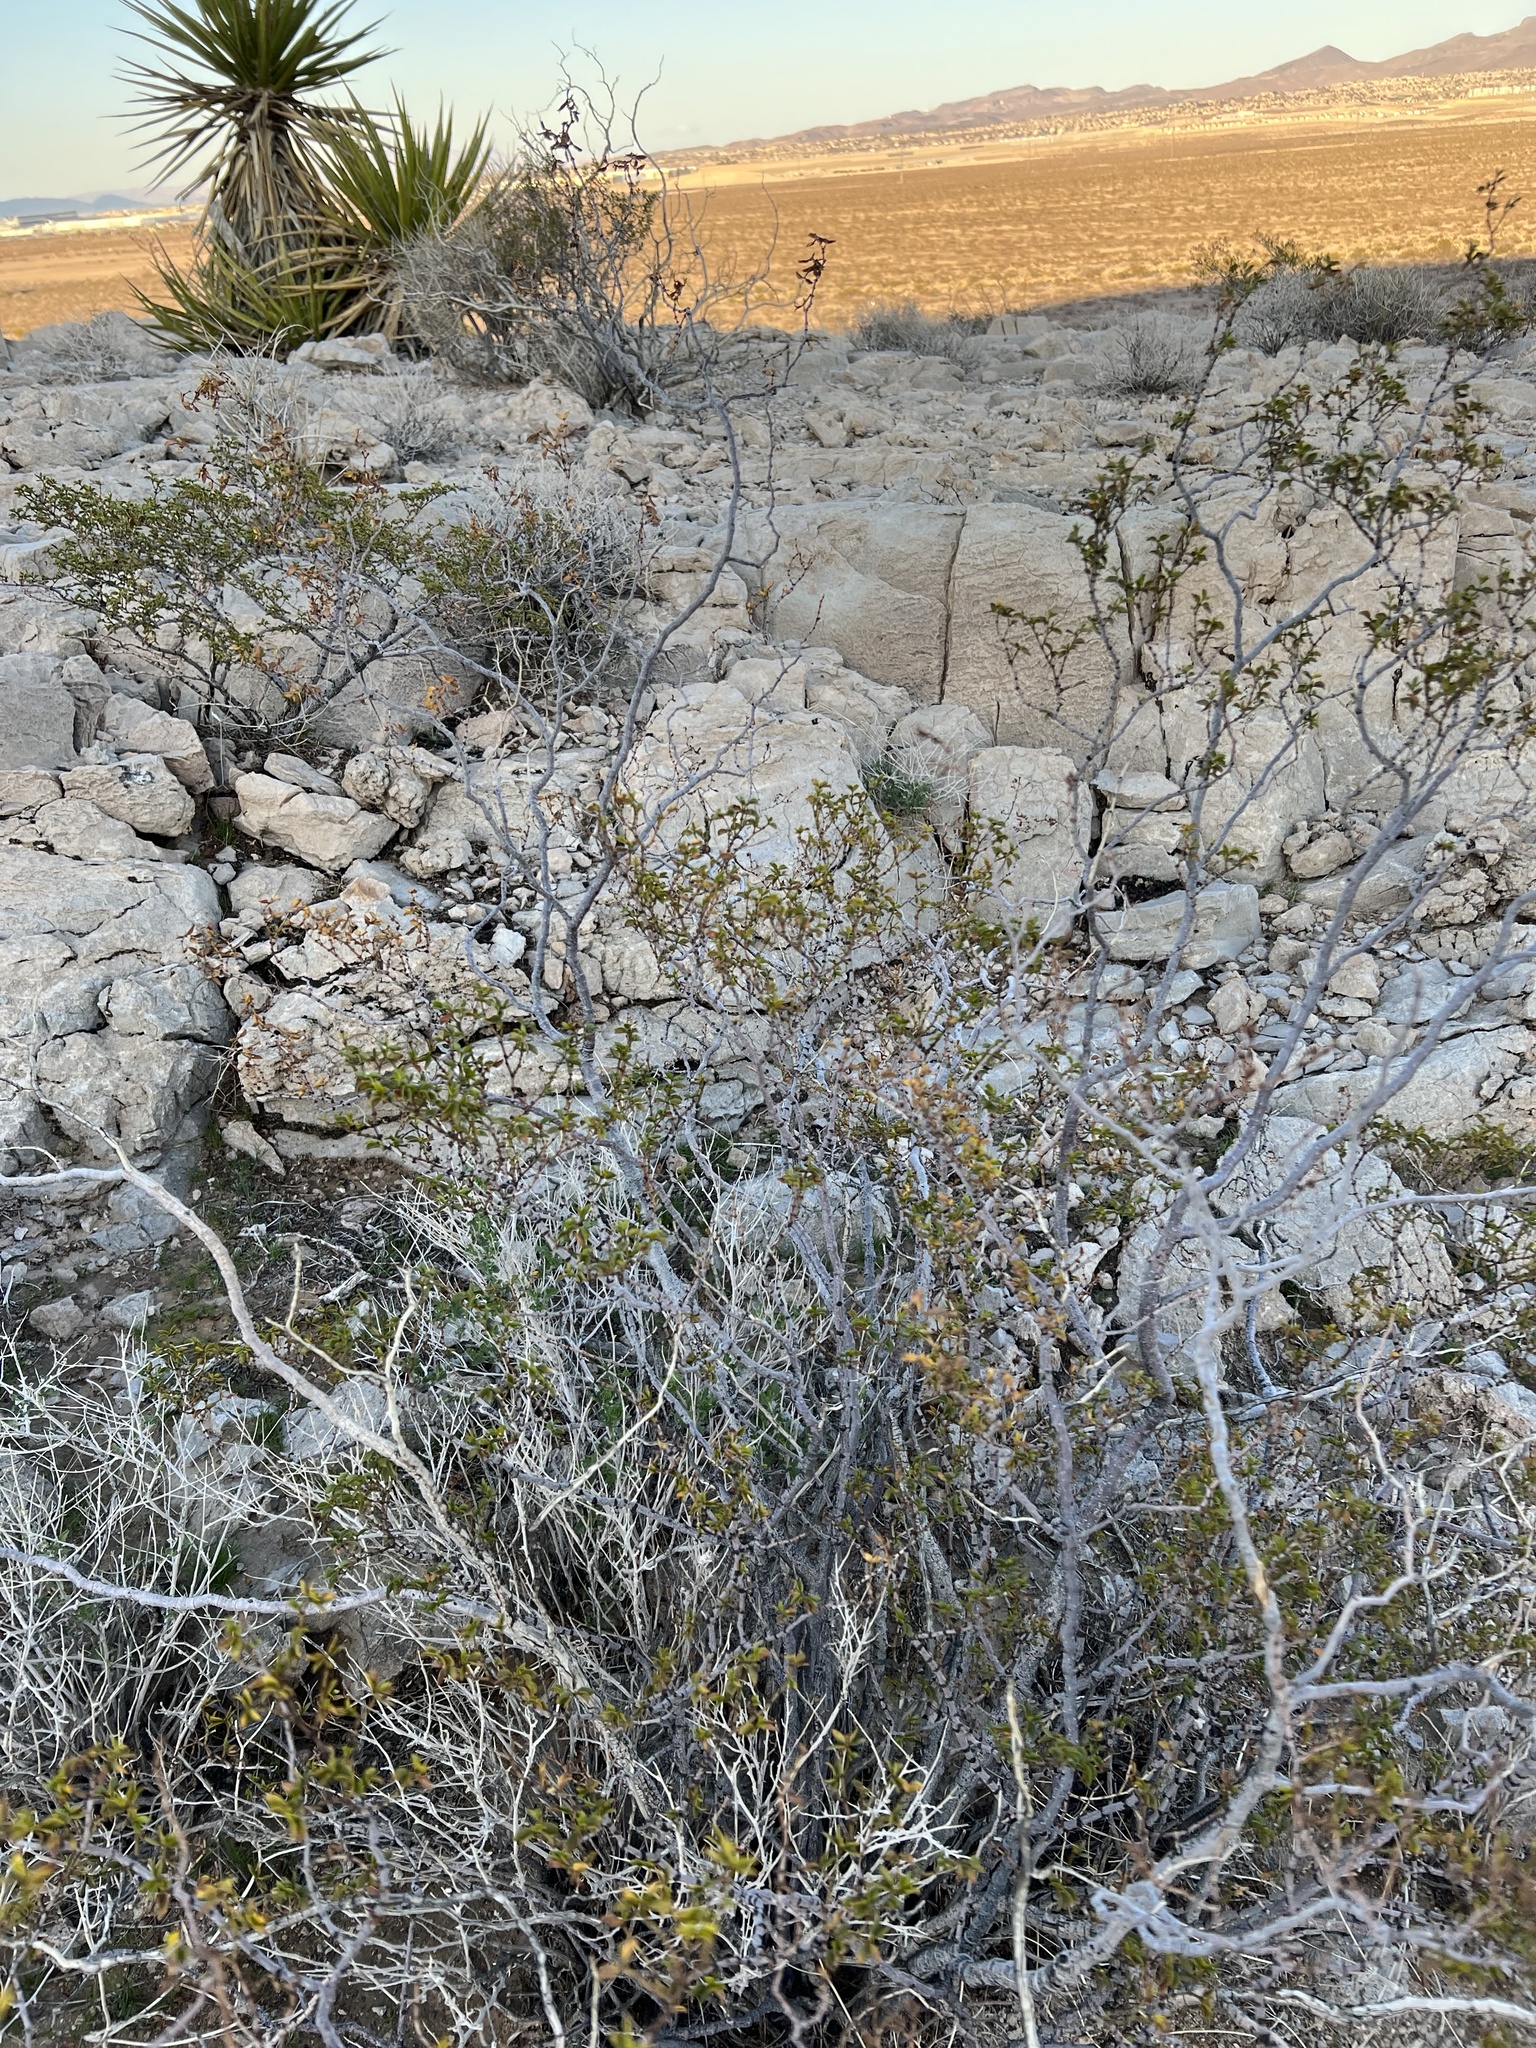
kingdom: Plantae
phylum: Tracheophyta
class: Magnoliopsida
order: Zygophyllales
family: Zygophyllaceae
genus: Larrea
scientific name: Larrea tridentata
